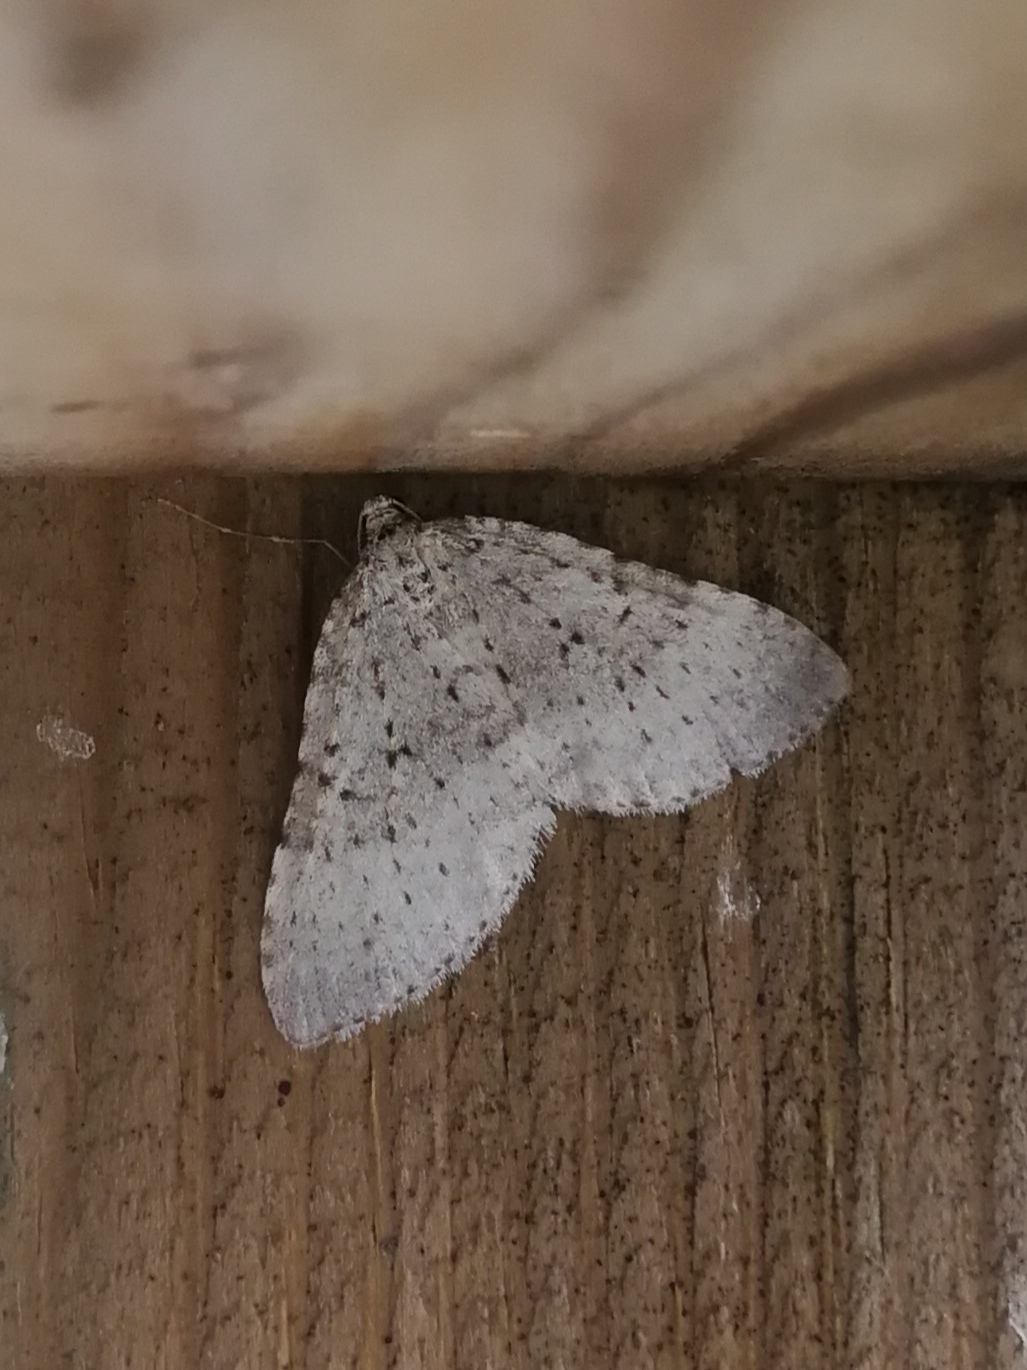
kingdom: Animalia
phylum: Arthropoda
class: Insecta
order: Lepidoptera
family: Geometridae
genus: Colostygia
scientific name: Colostygia multistrigaria
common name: Mottled grey
